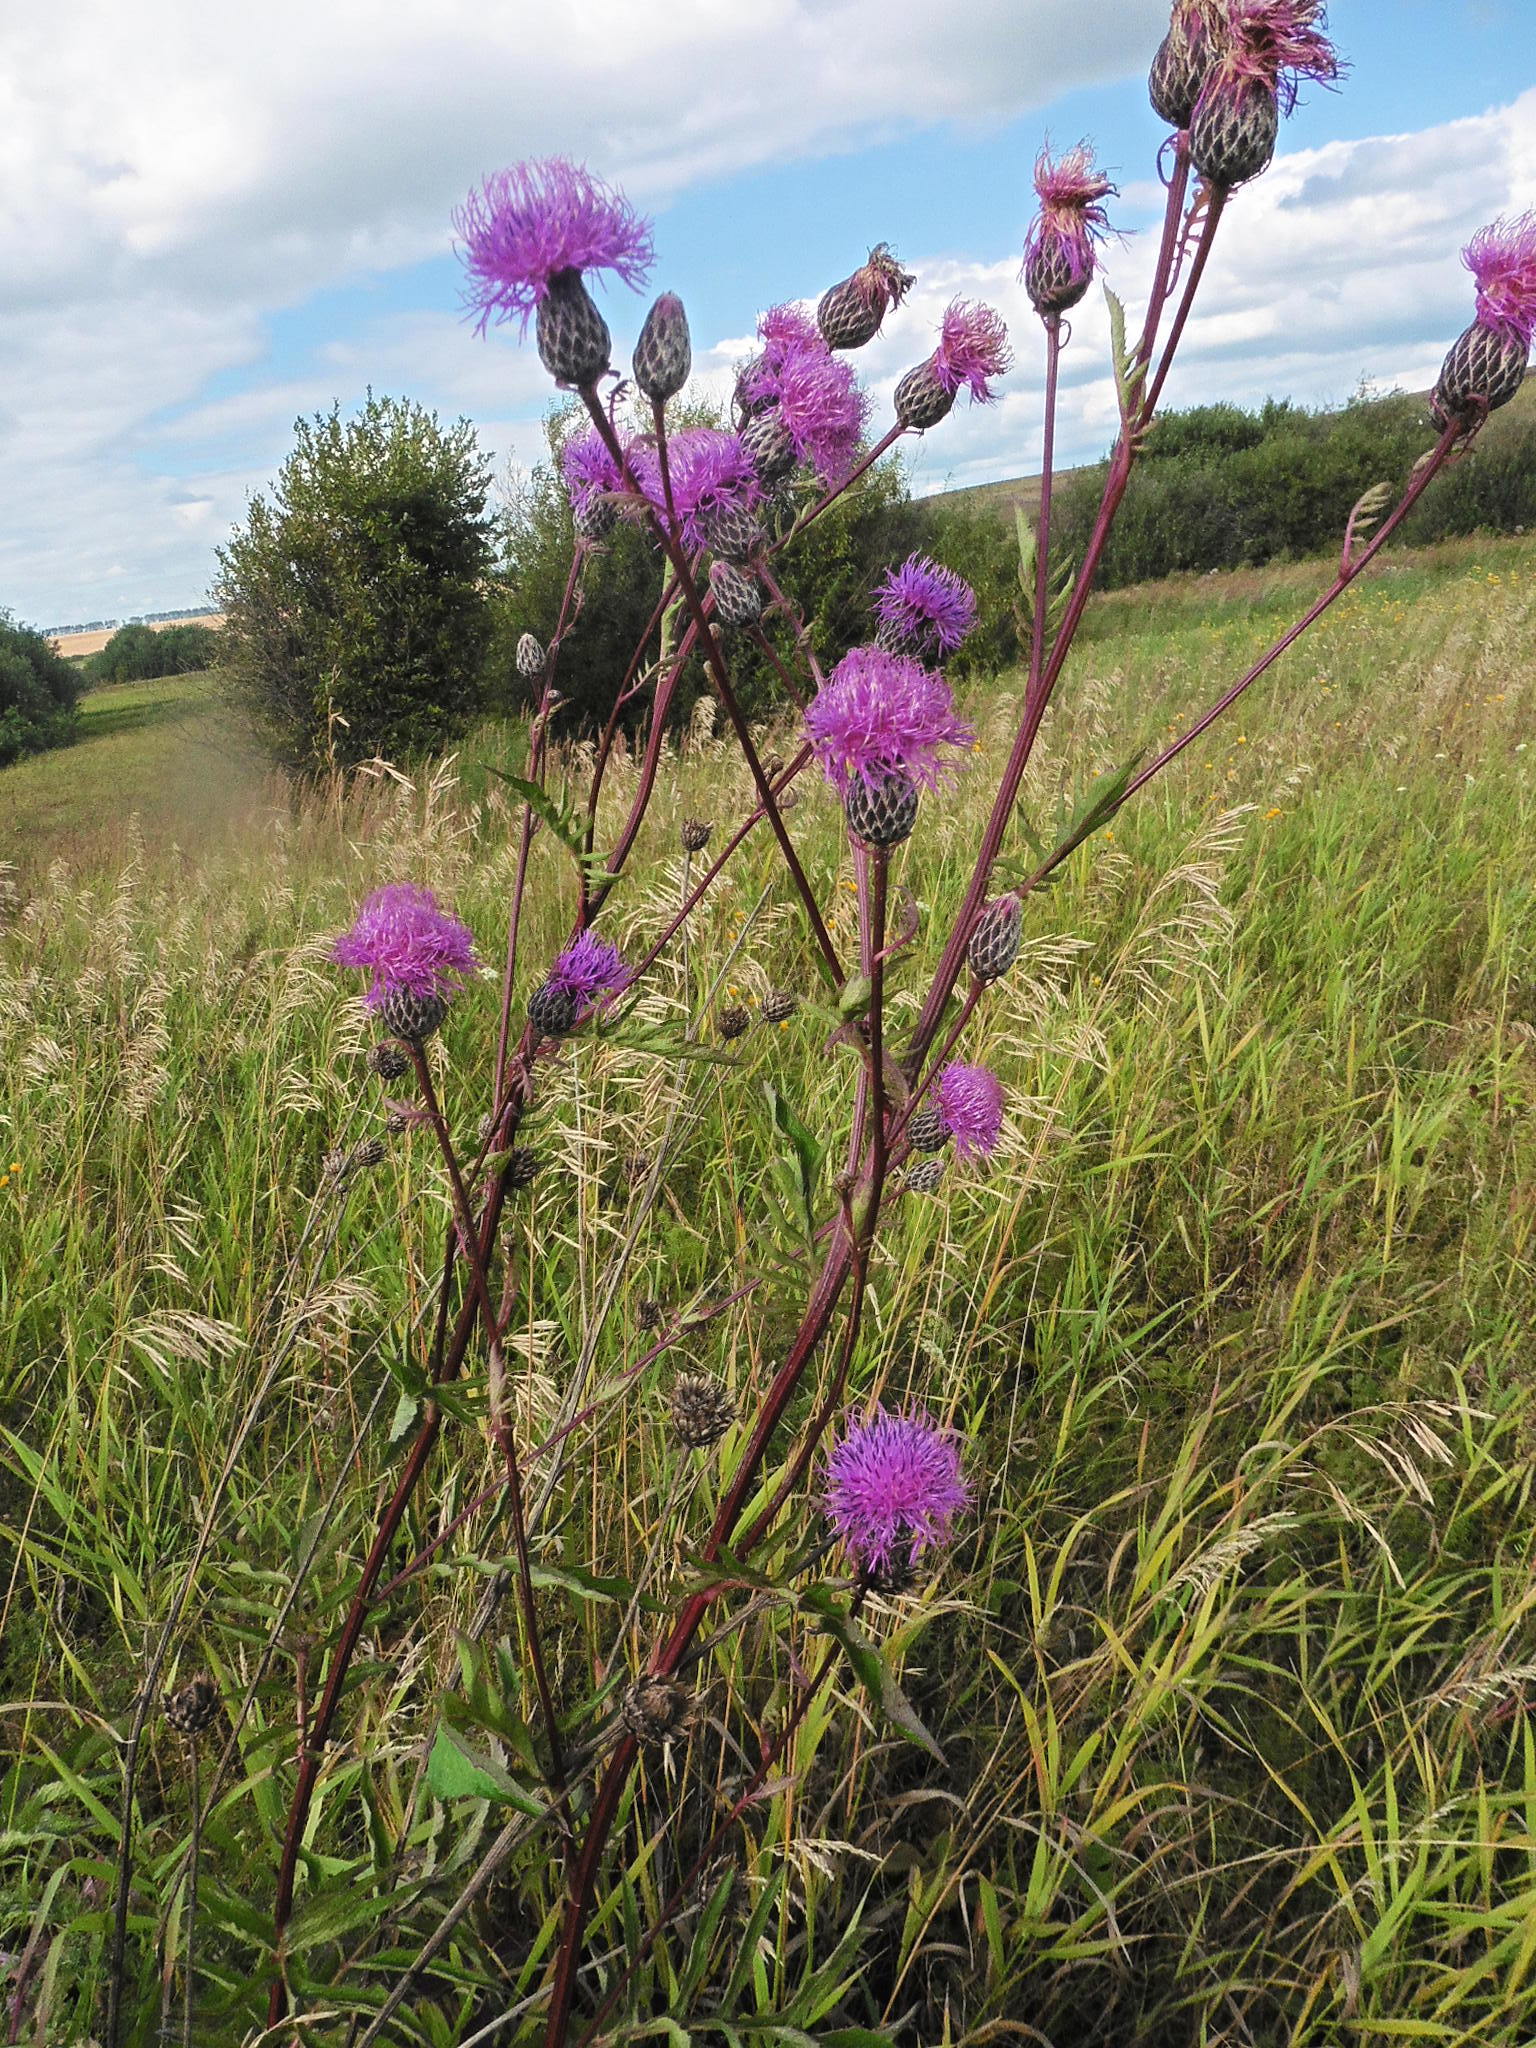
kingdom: Plantae
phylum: Tracheophyta
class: Magnoliopsida
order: Asterales
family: Asteraceae
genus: Serratula
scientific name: Serratula coronata
